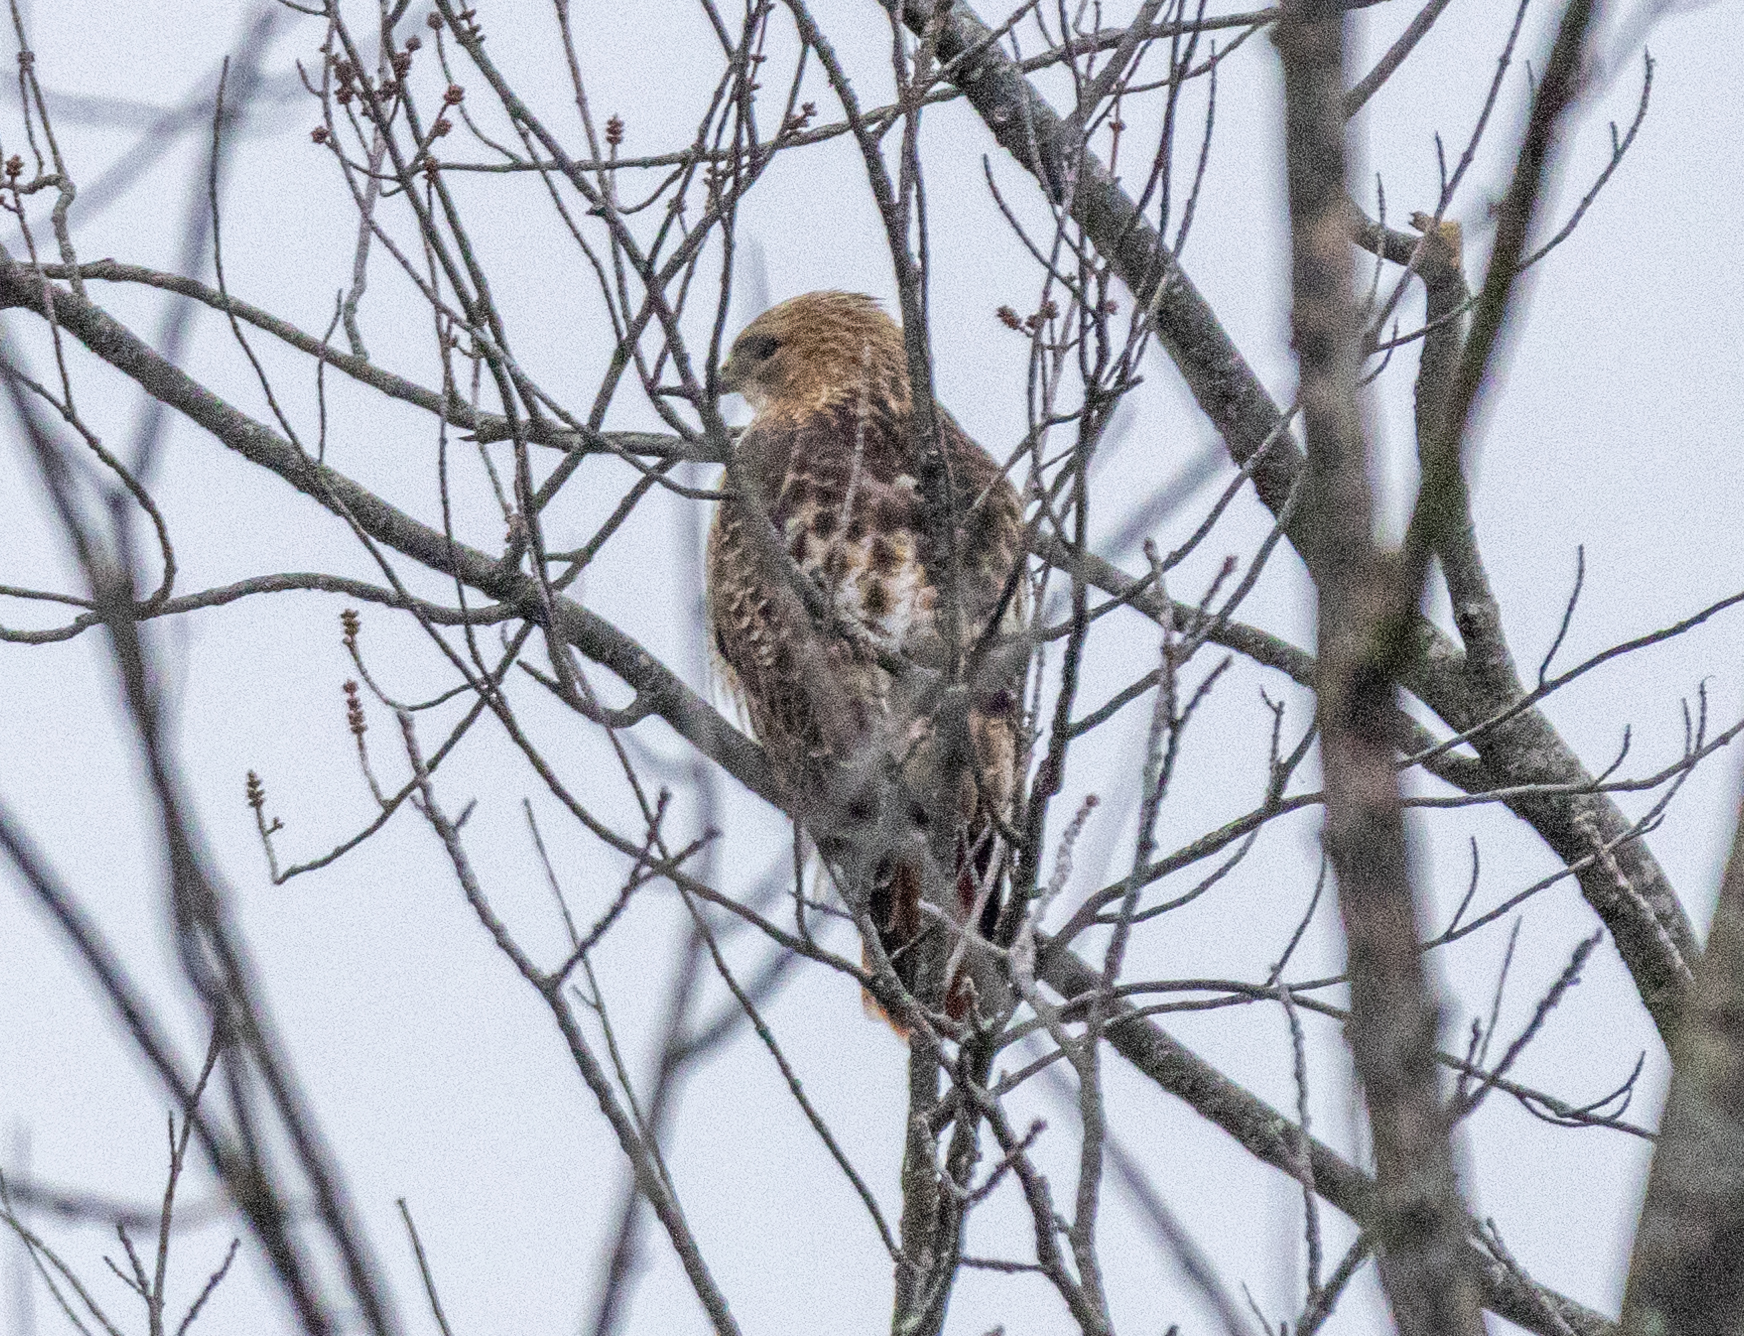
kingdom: Animalia
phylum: Chordata
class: Aves
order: Accipitriformes
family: Accipitridae
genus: Buteo
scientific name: Buteo jamaicensis
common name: Red-tailed hawk
